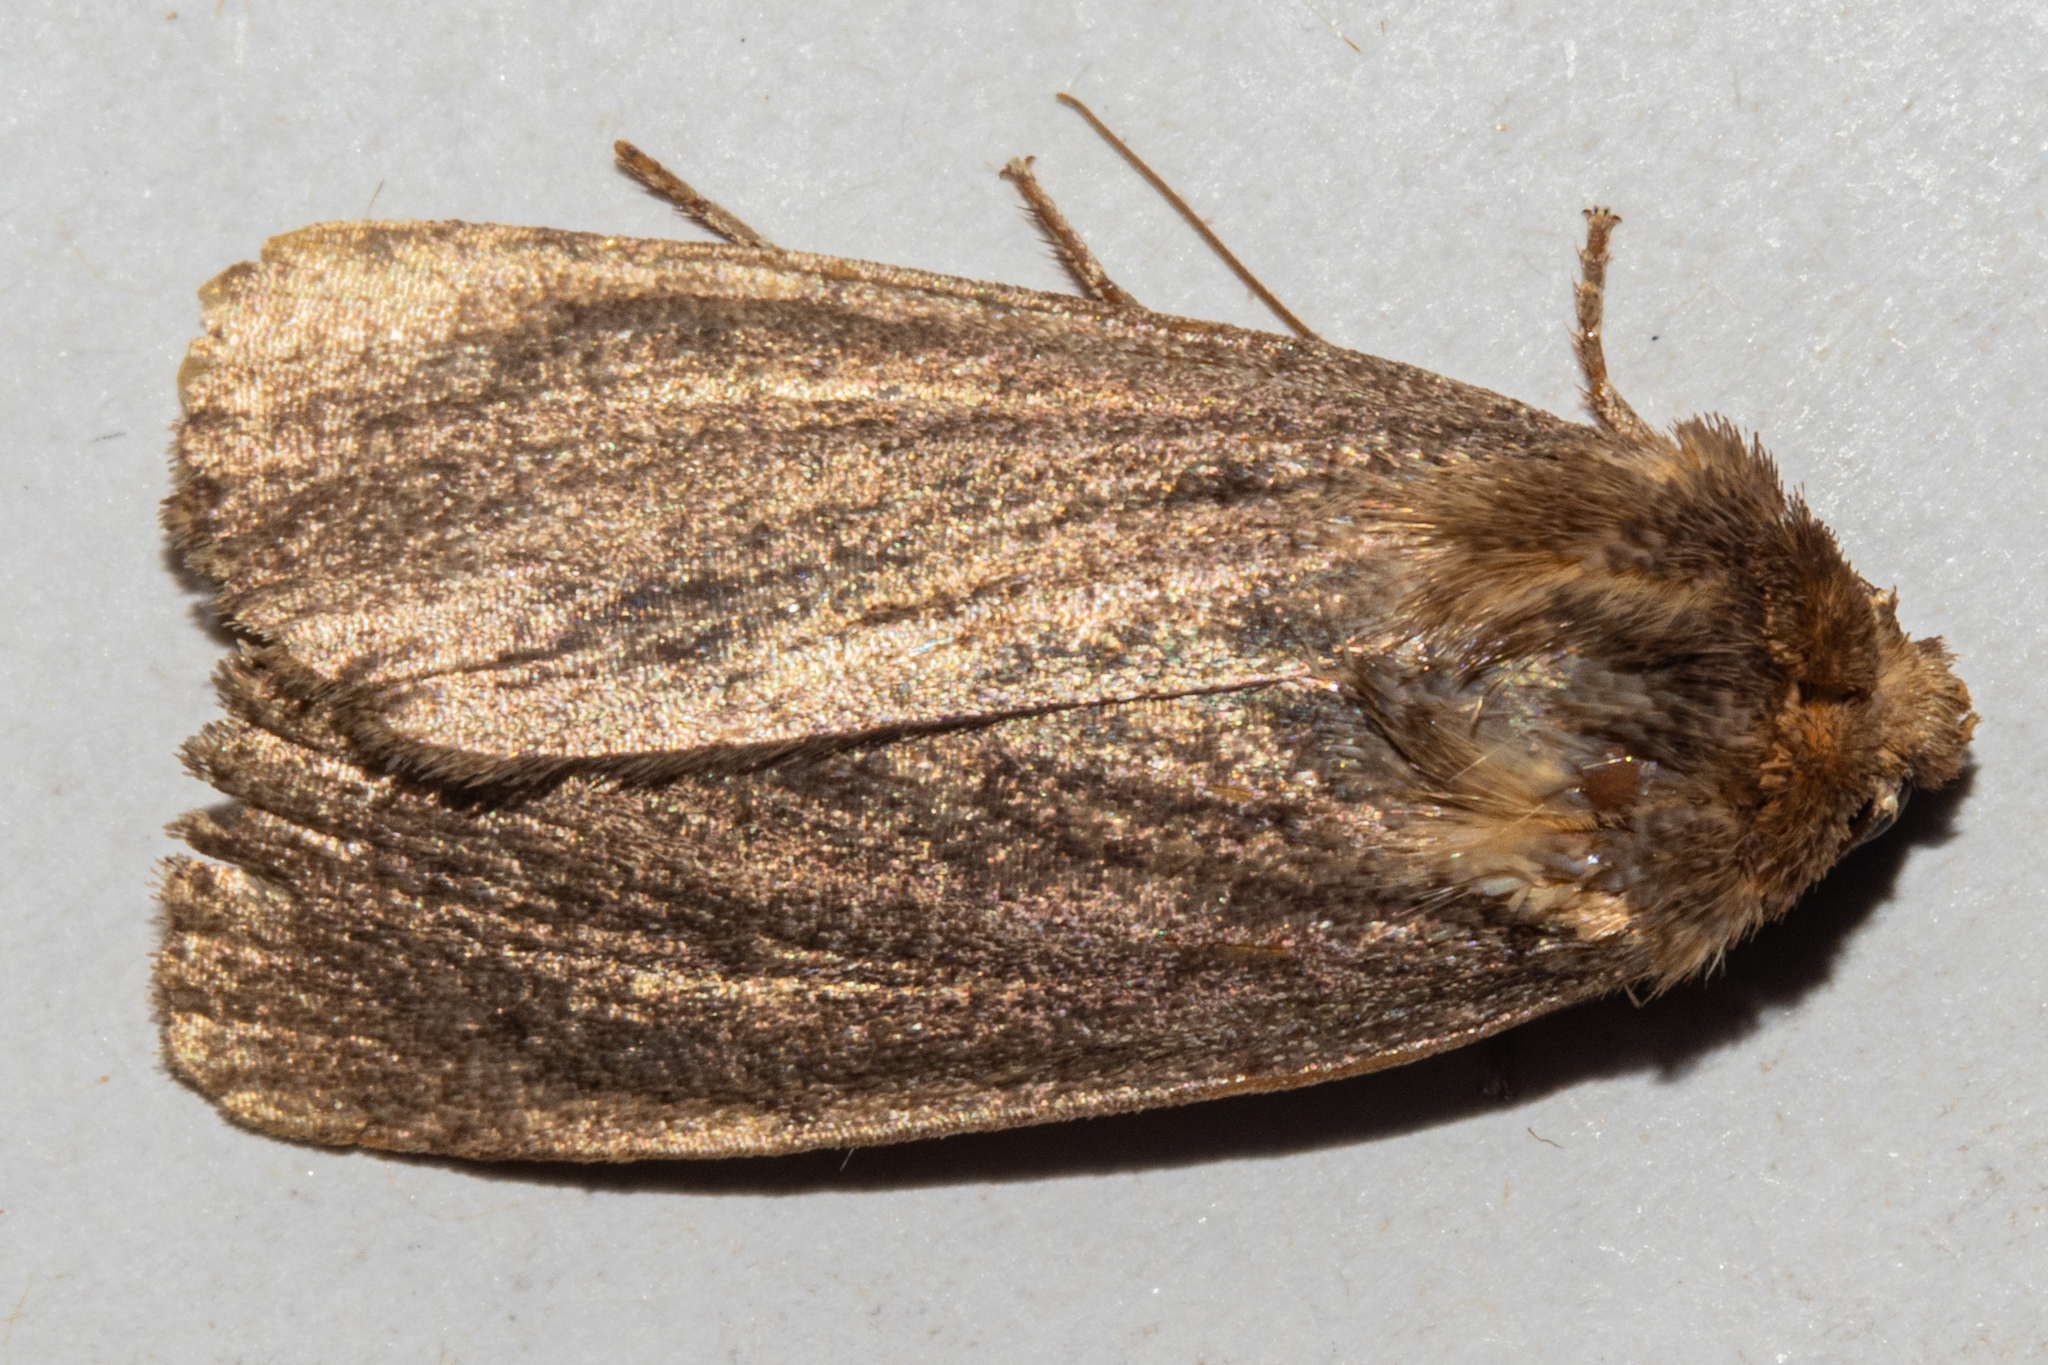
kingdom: Animalia
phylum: Arthropoda
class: Insecta
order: Lepidoptera
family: Noctuidae
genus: Bityla
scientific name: Bityla defigurata
